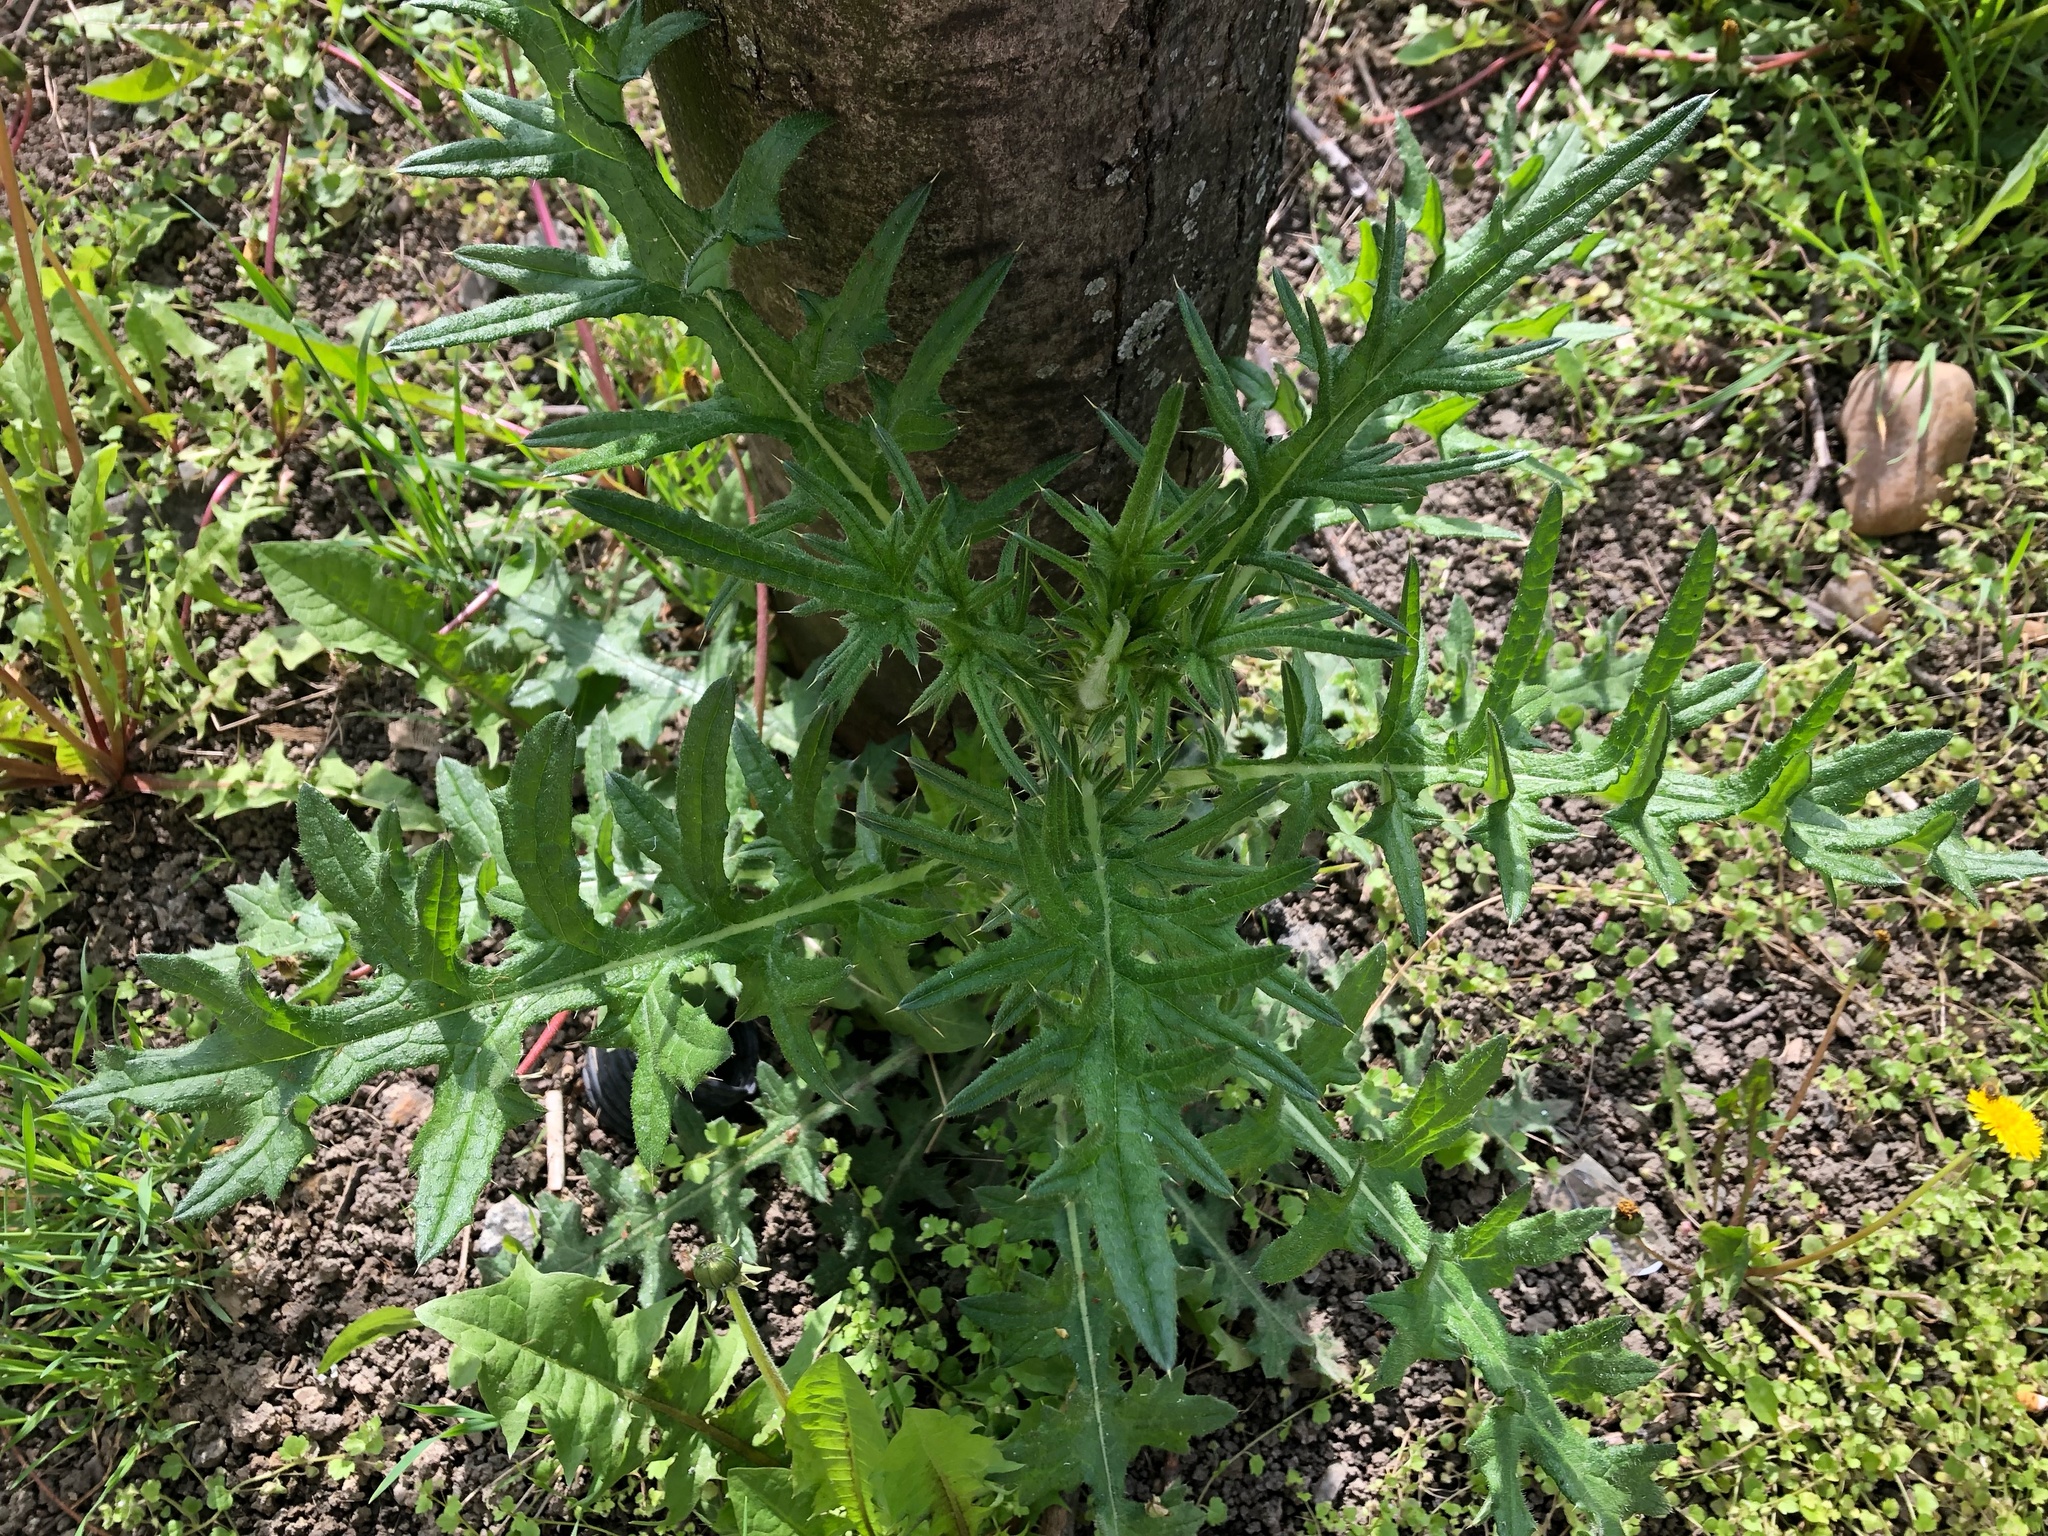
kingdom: Plantae
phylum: Tracheophyta
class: Magnoliopsida
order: Asterales
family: Asteraceae
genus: Cirsium
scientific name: Cirsium vulgare
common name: Bull thistle
